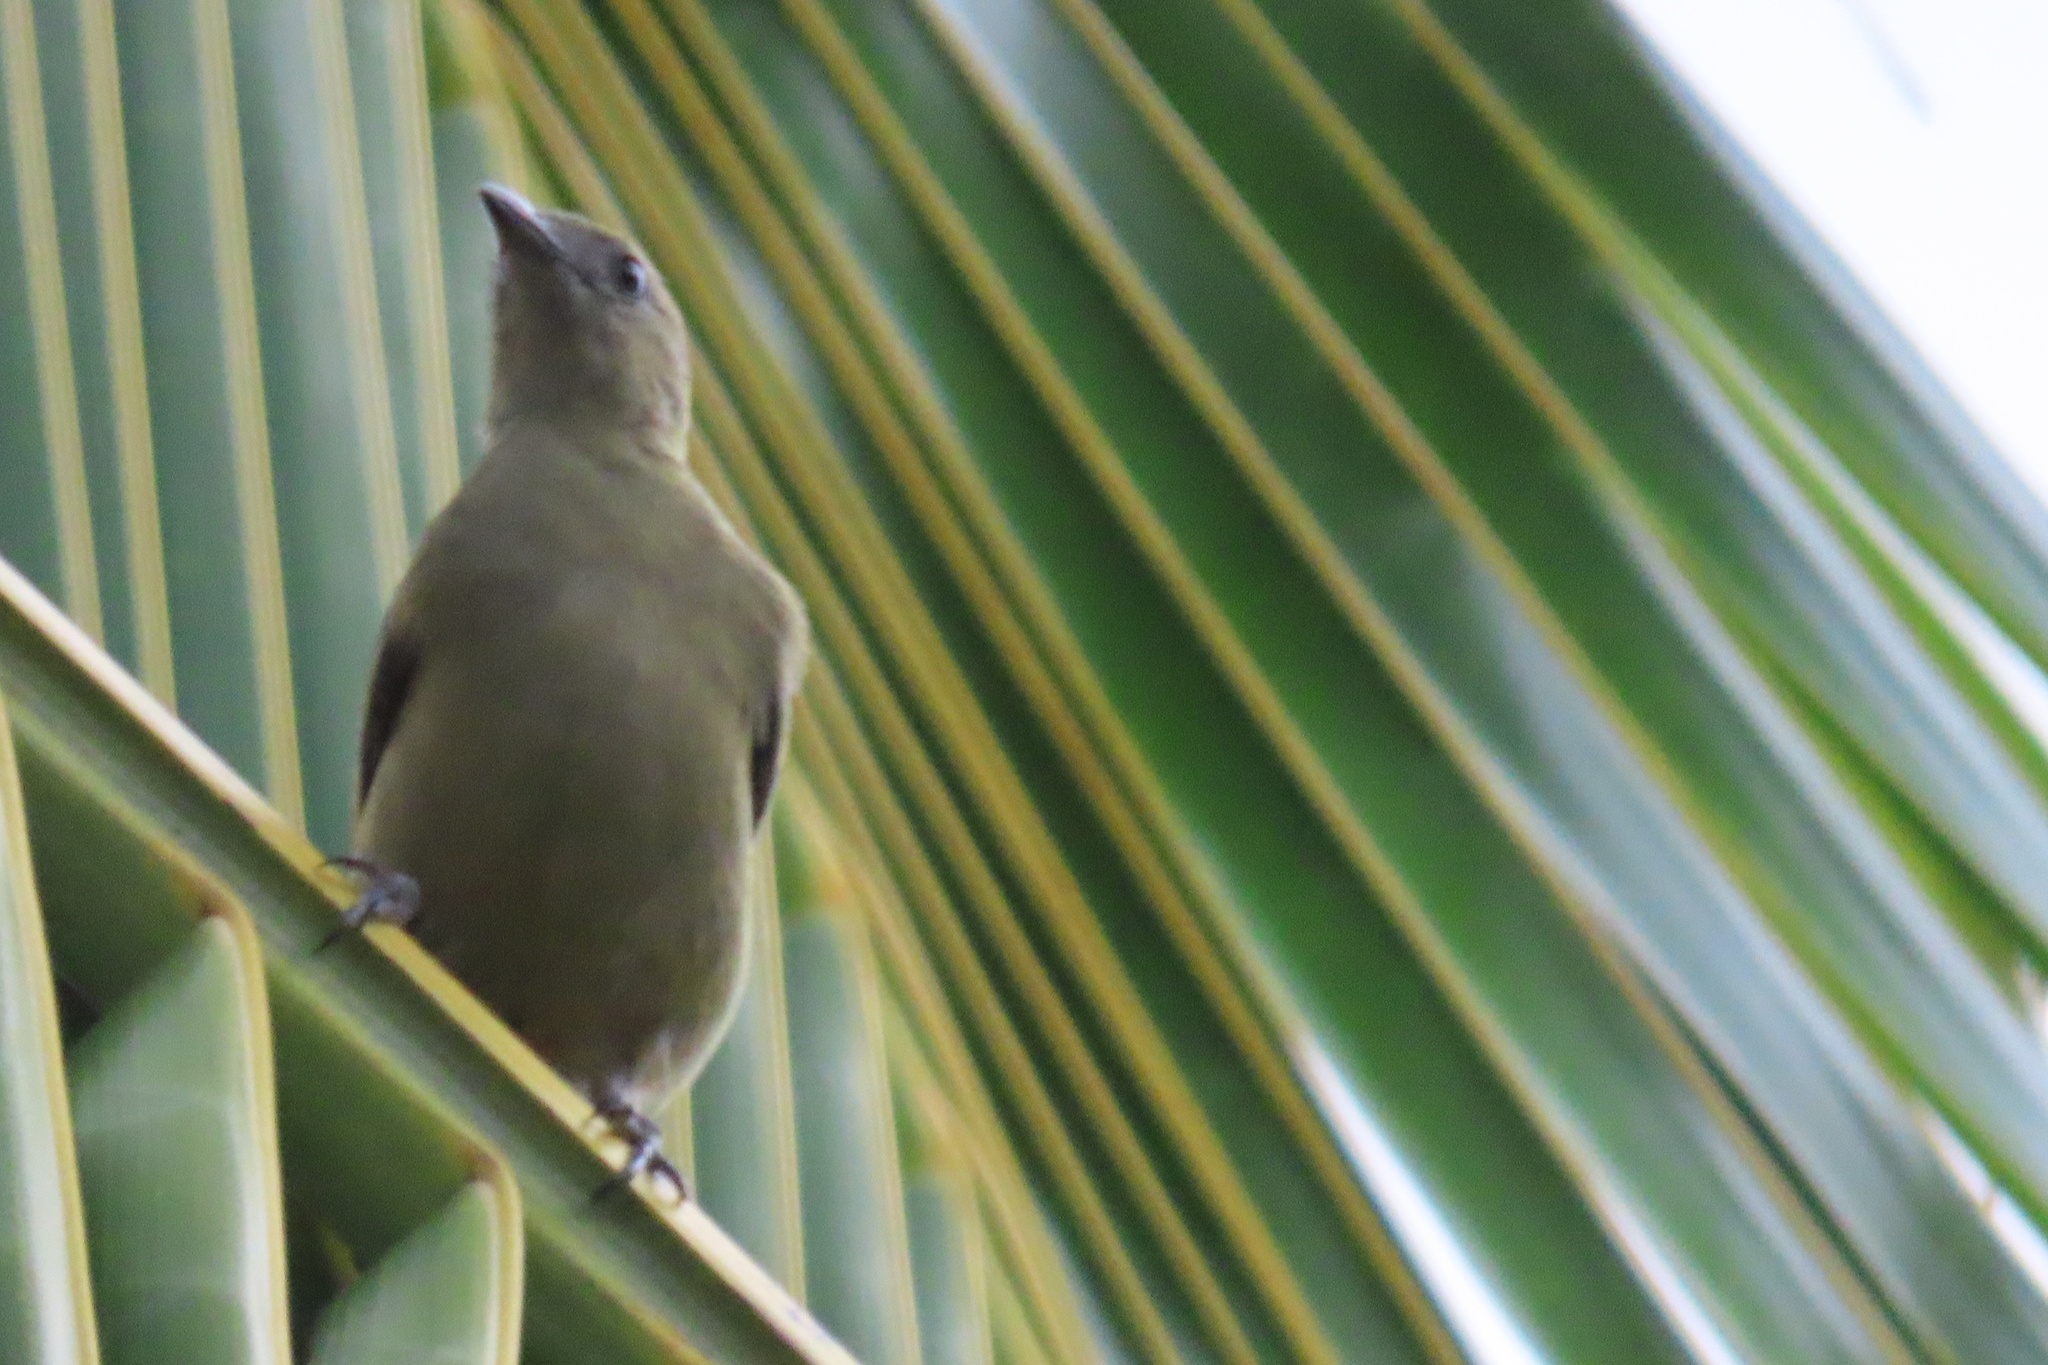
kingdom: Animalia
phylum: Chordata
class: Aves
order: Passeriformes
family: Thraupidae
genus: Thraupis
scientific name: Thraupis palmarum
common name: Palm tanager
